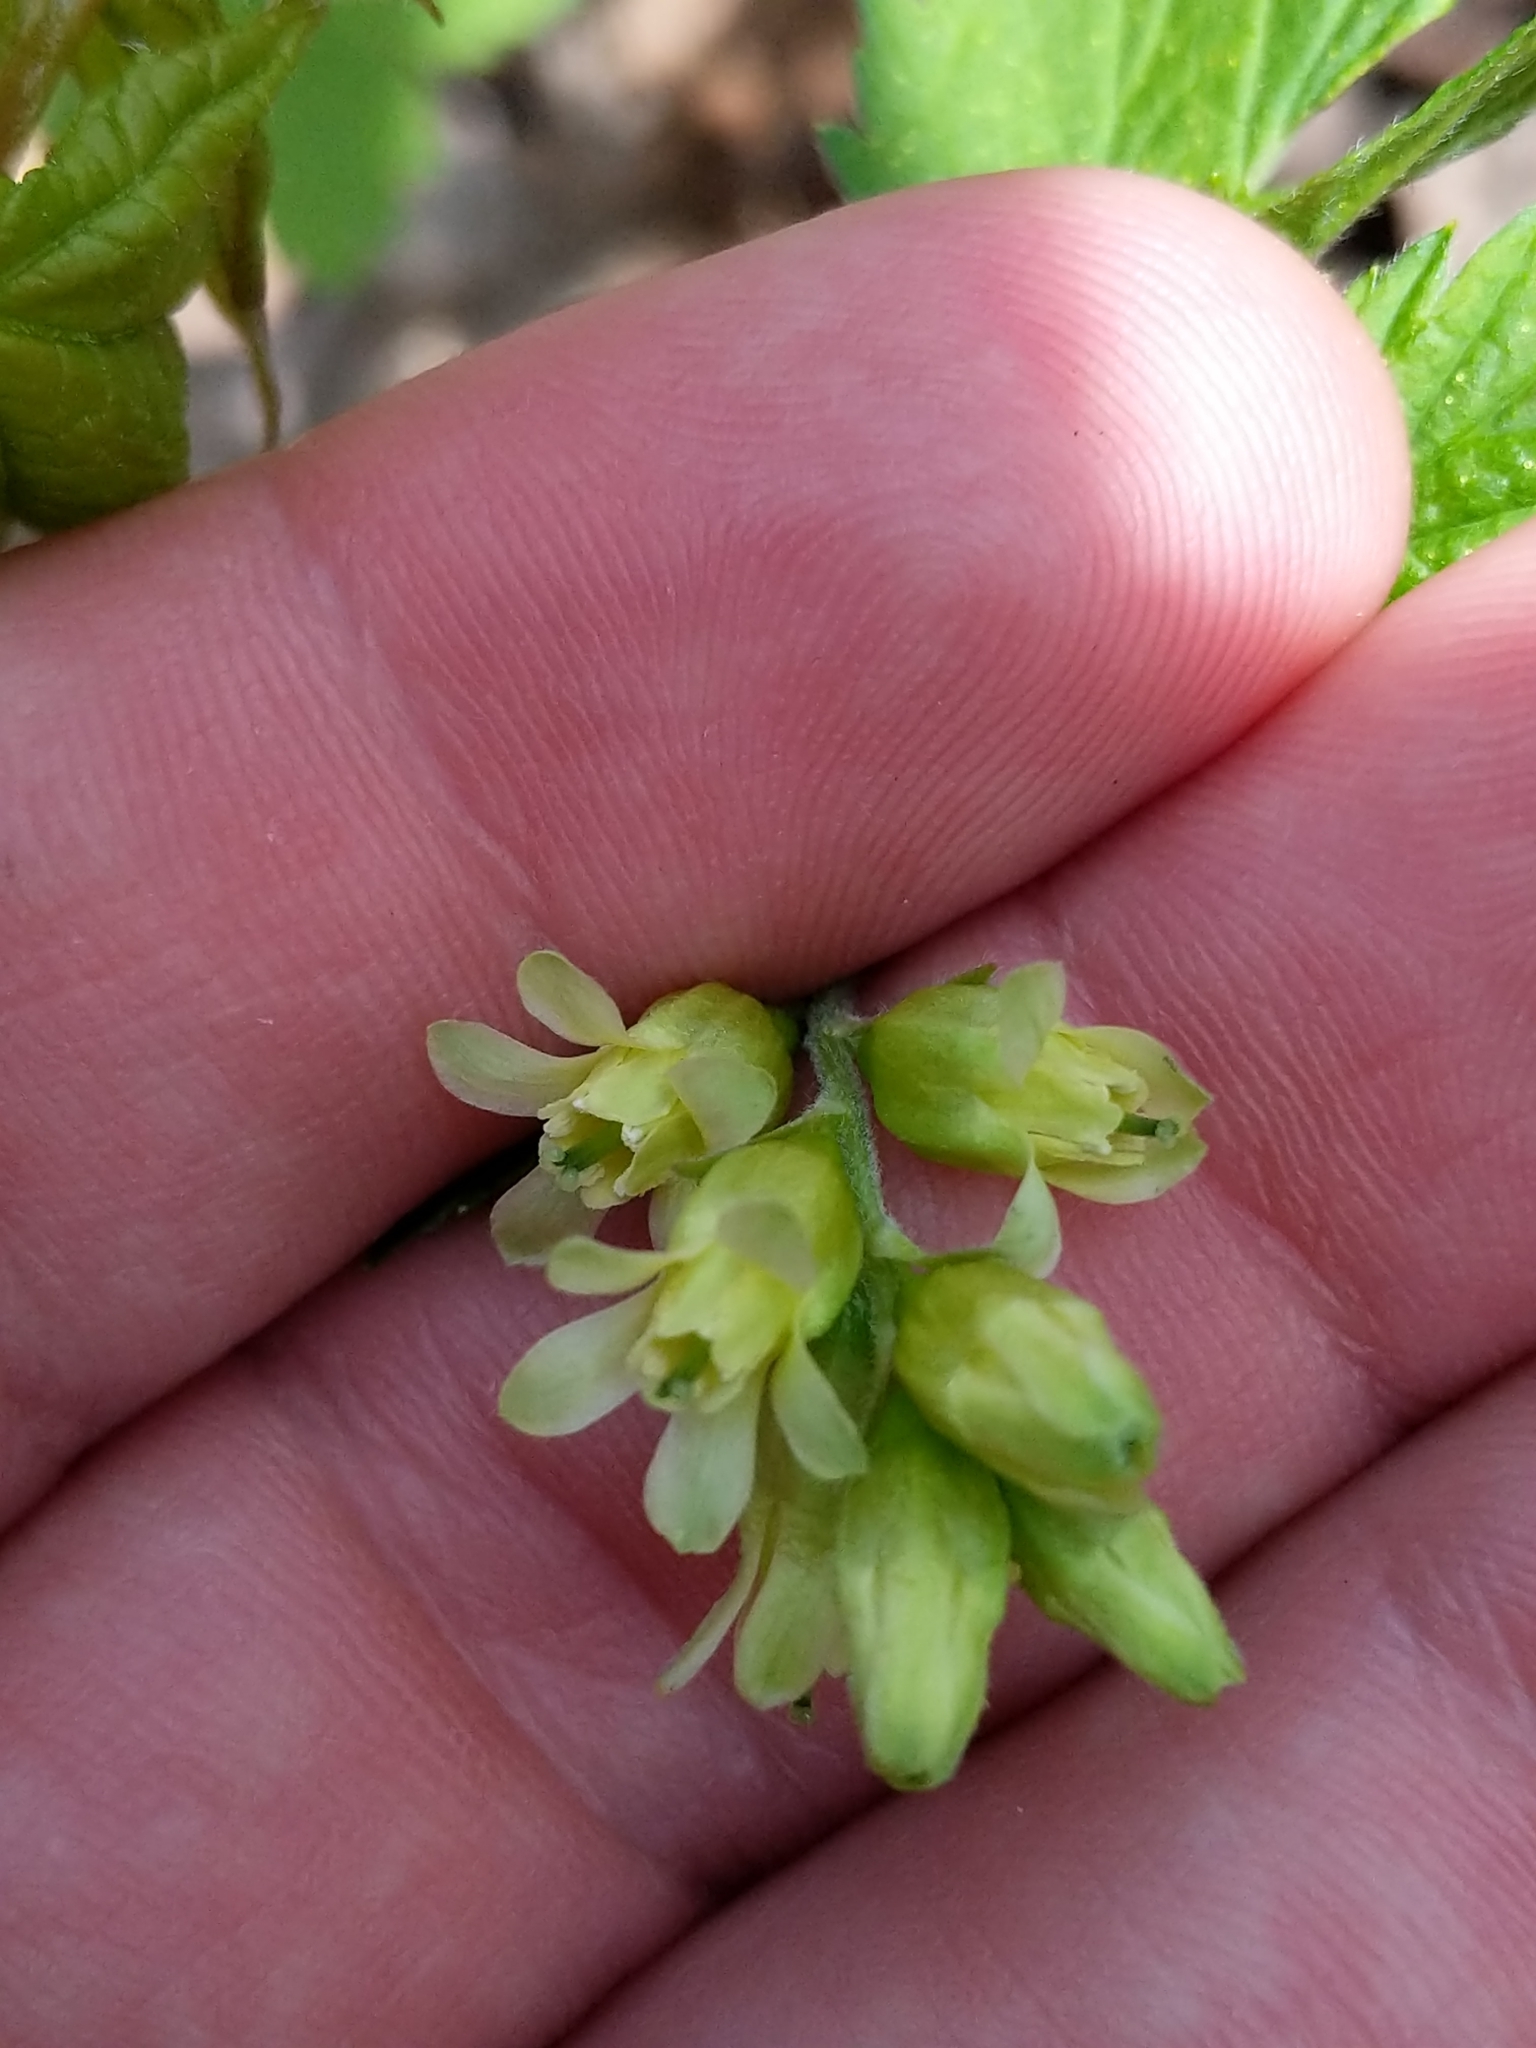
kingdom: Plantae
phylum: Tracheophyta
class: Magnoliopsida
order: Saxifragales
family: Grossulariaceae
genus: Ribes
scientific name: Ribes americanum
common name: American black currant
